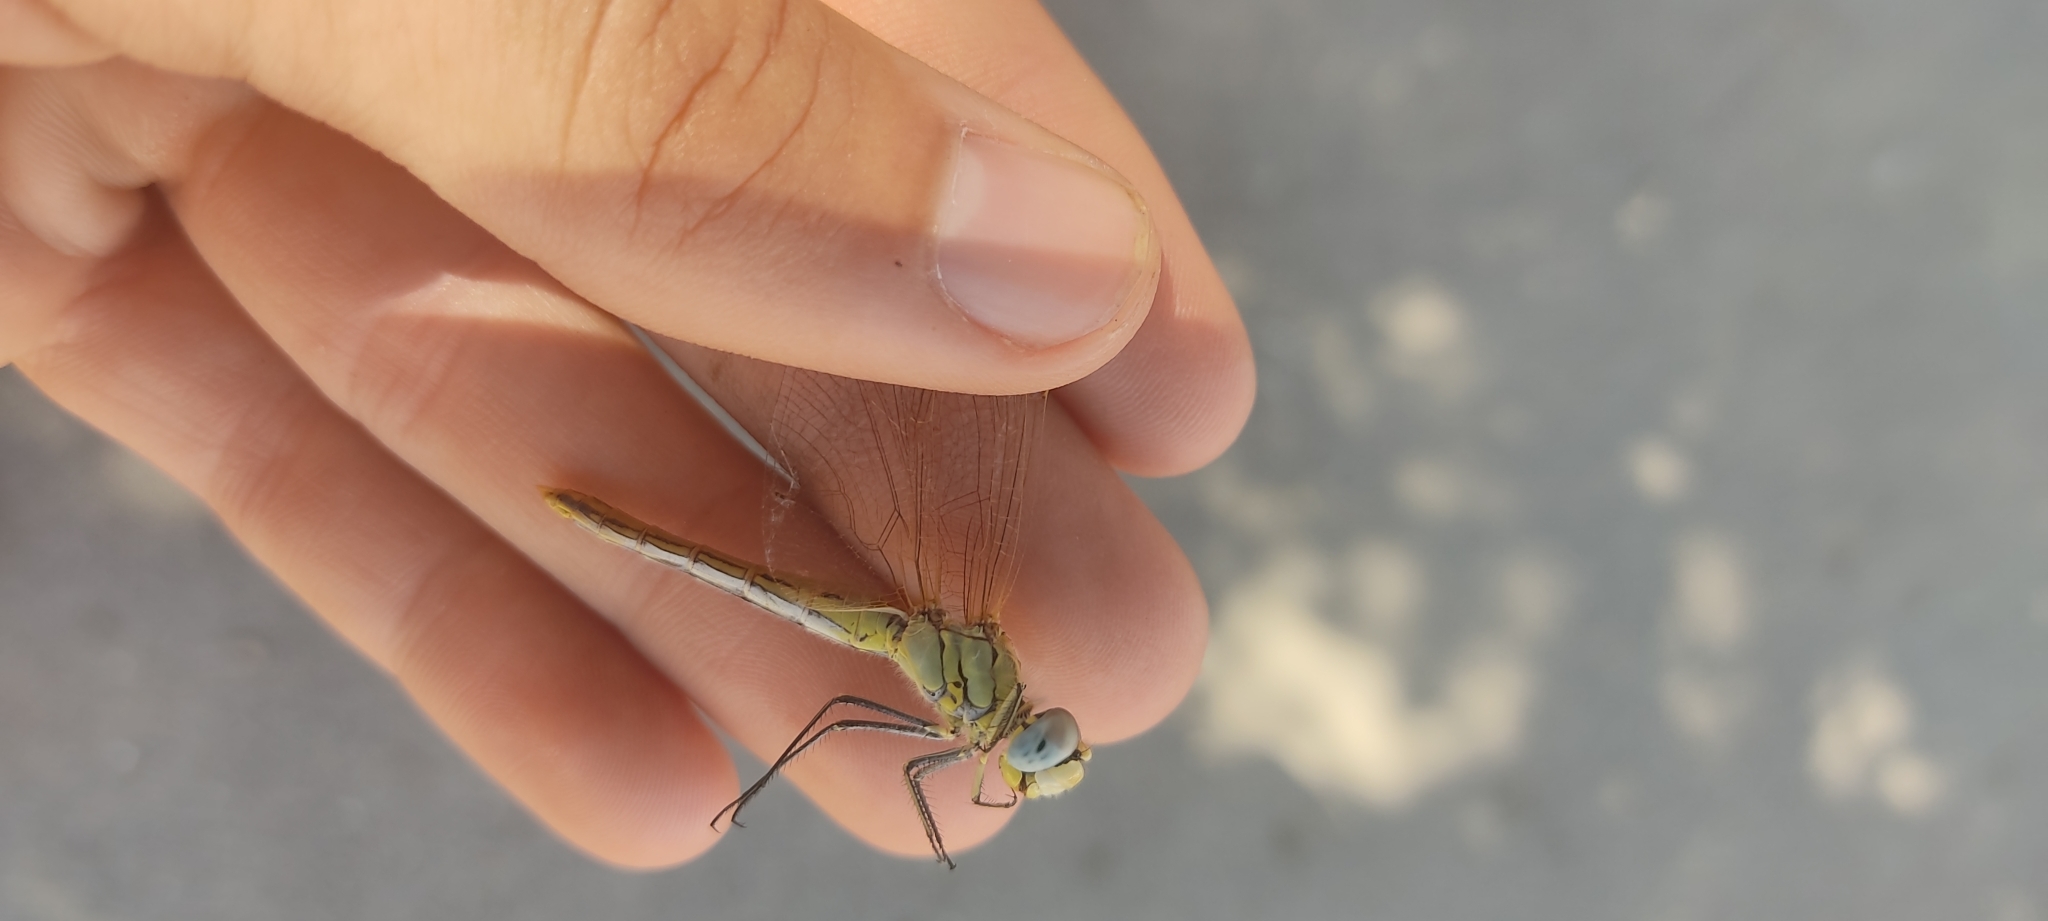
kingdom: Animalia
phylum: Arthropoda
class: Insecta
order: Odonata
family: Libellulidae
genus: Sympetrum
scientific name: Sympetrum fonscolombii
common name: Red-veined darter
